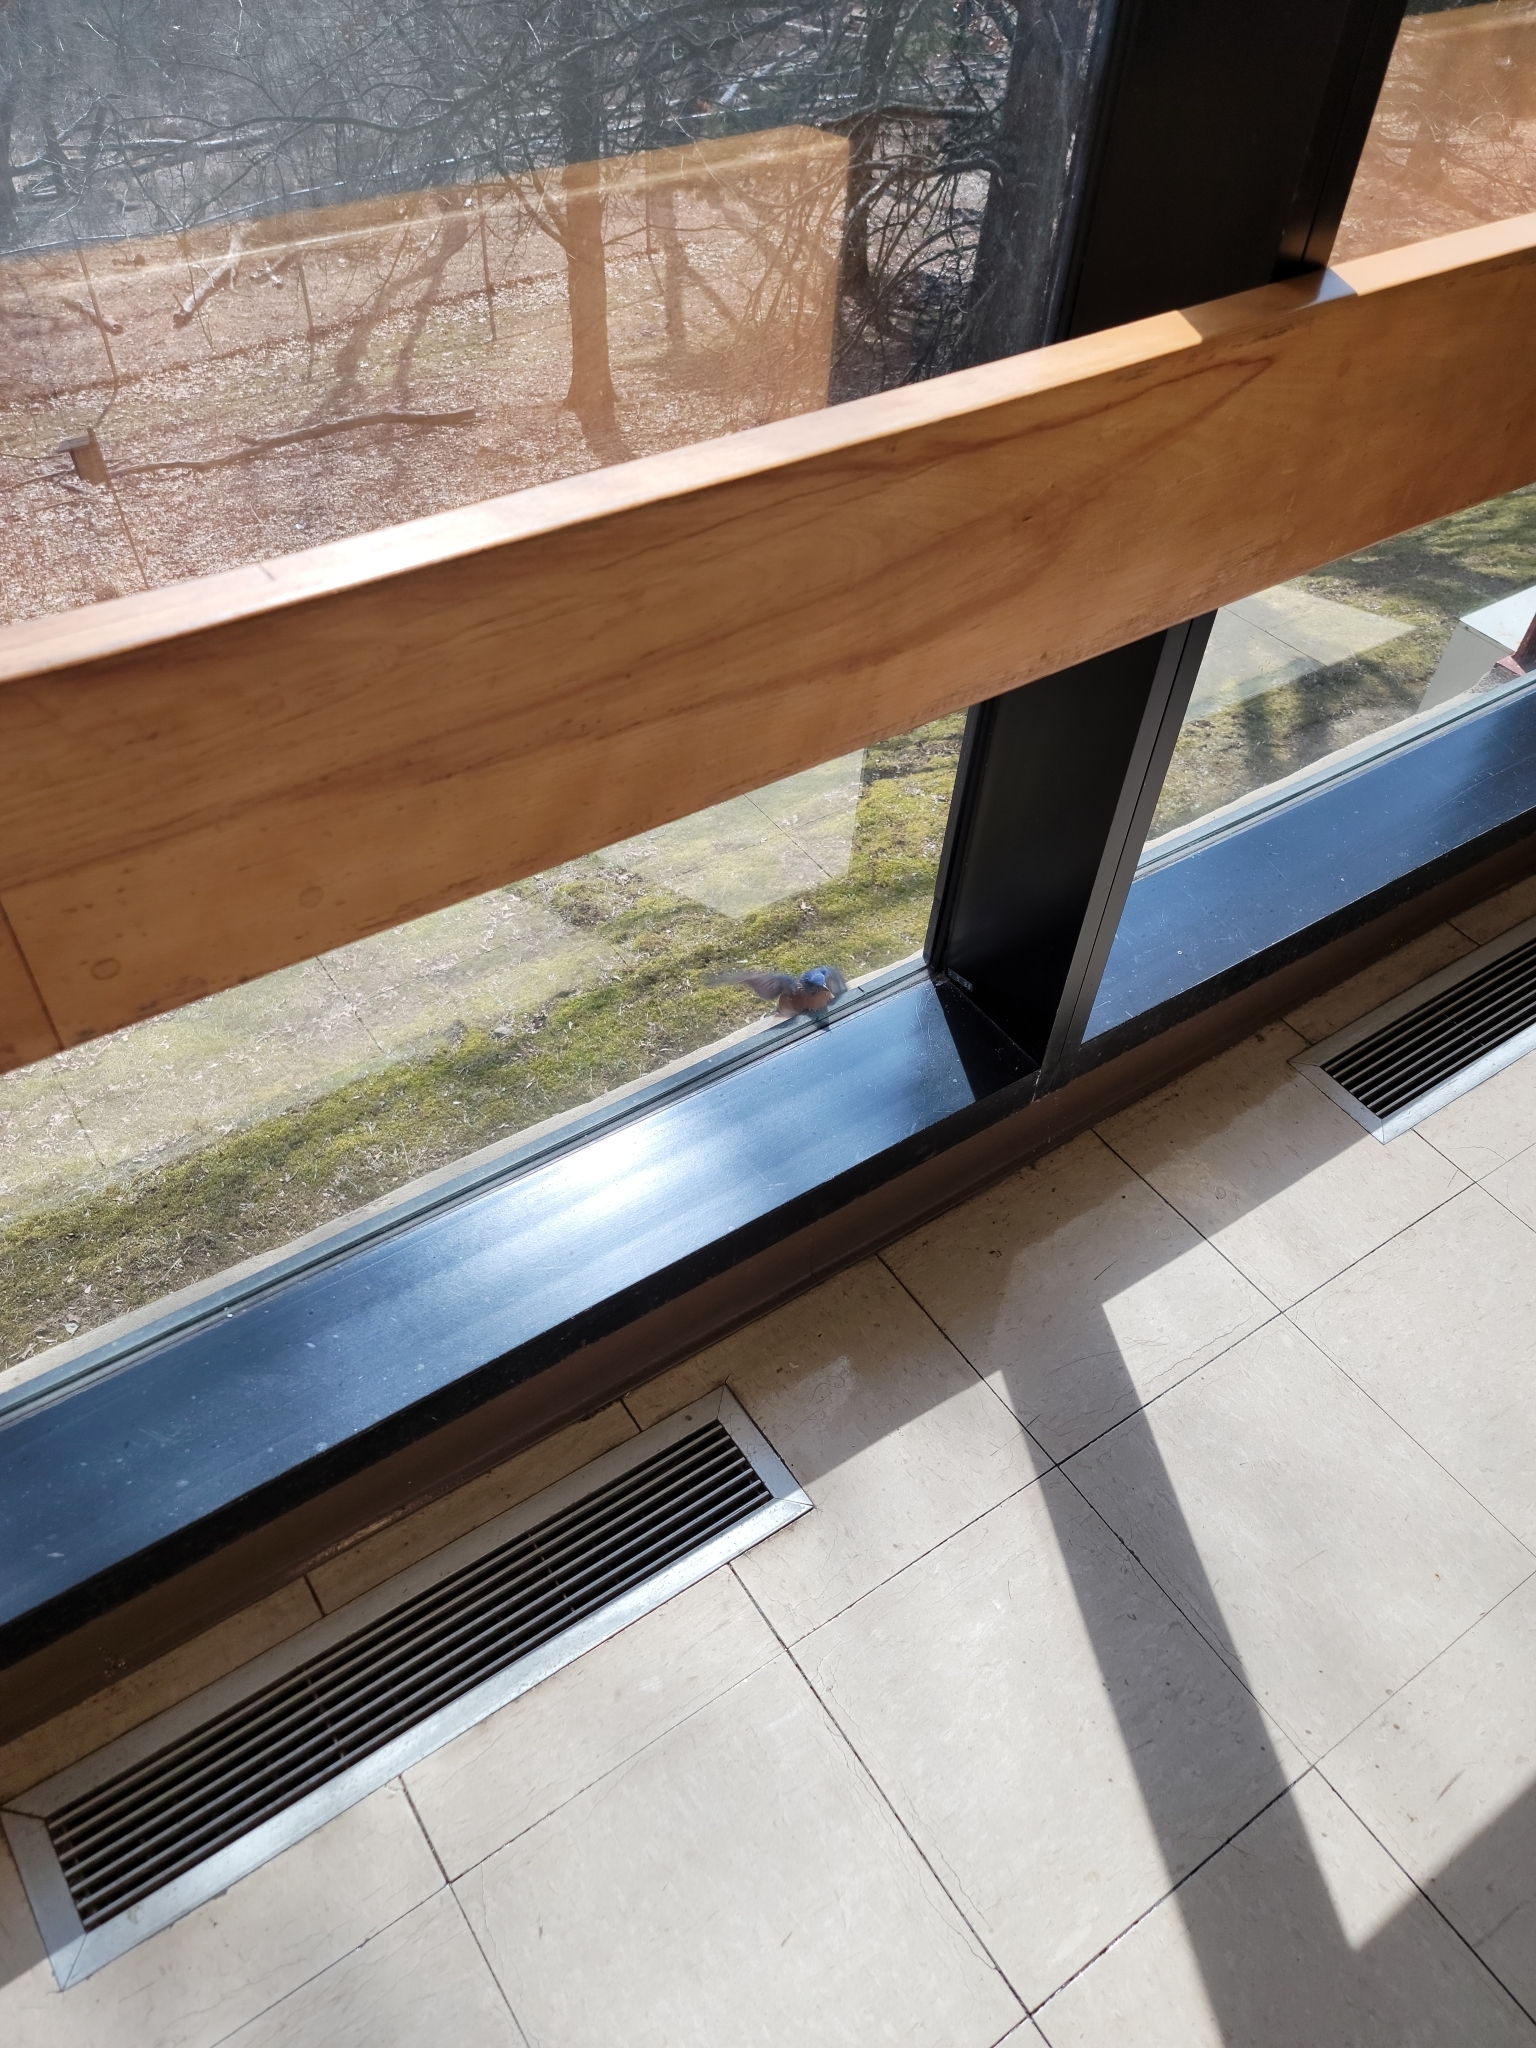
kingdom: Animalia
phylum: Chordata
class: Aves
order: Passeriformes
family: Turdidae
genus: Sialia
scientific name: Sialia sialis
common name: Eastern bluebird
